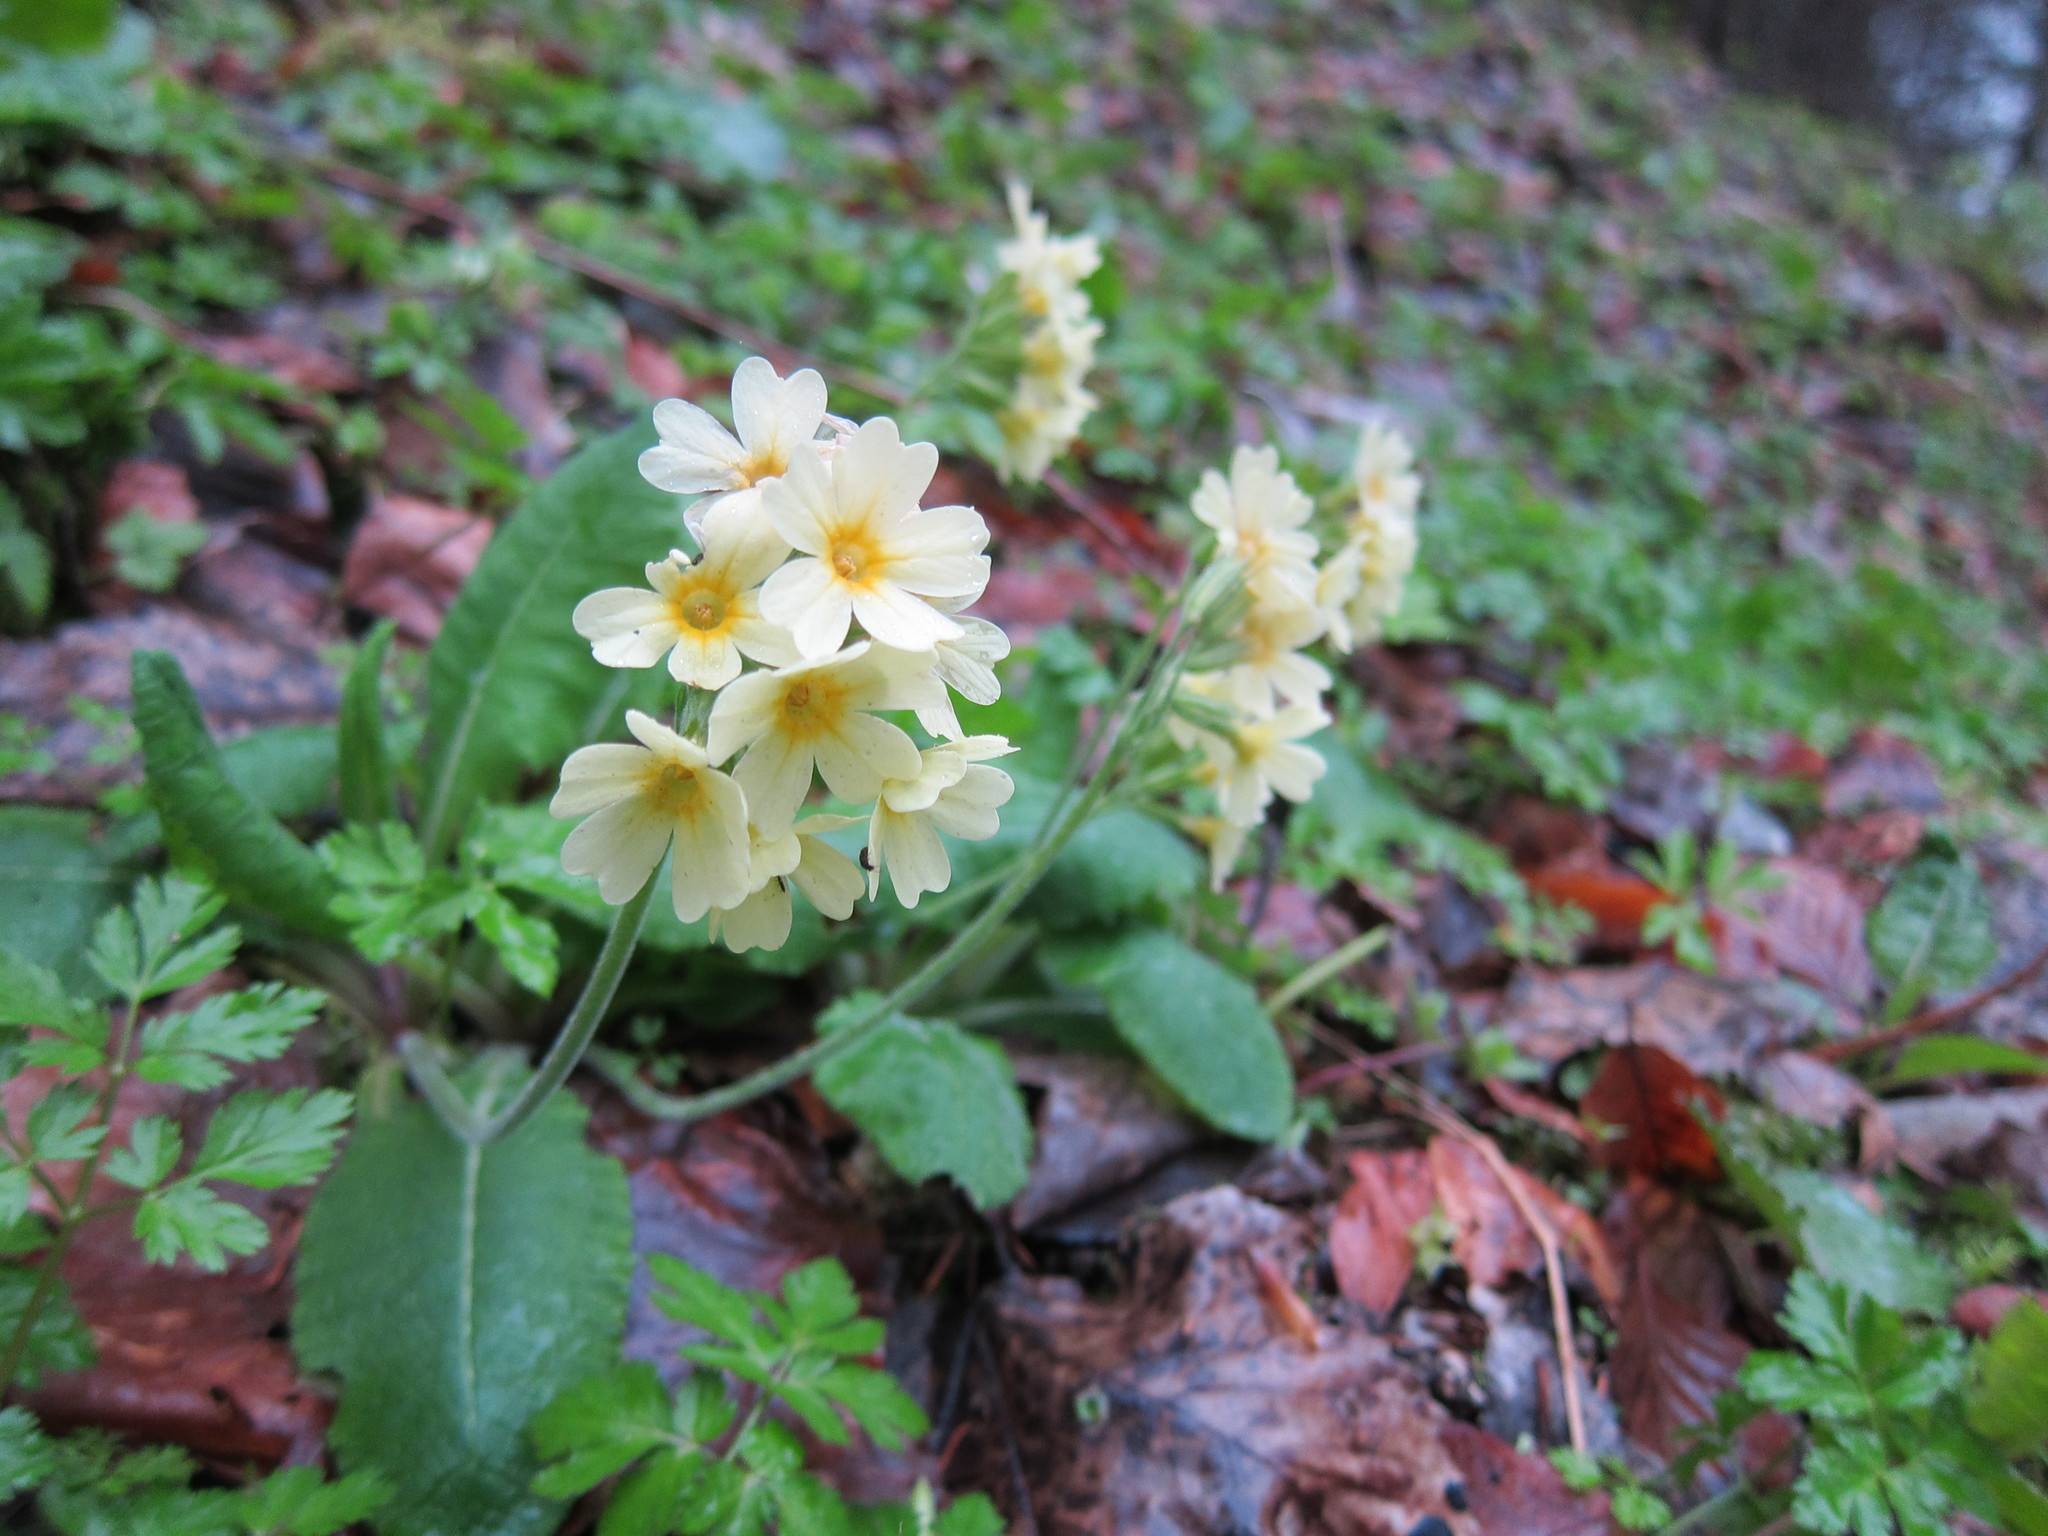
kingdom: Plantae
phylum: Tracheophyta
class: Magnoliopsida
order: Ericales
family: Primulaceae
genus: Primula
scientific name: Primula elatior
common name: Oxlip
